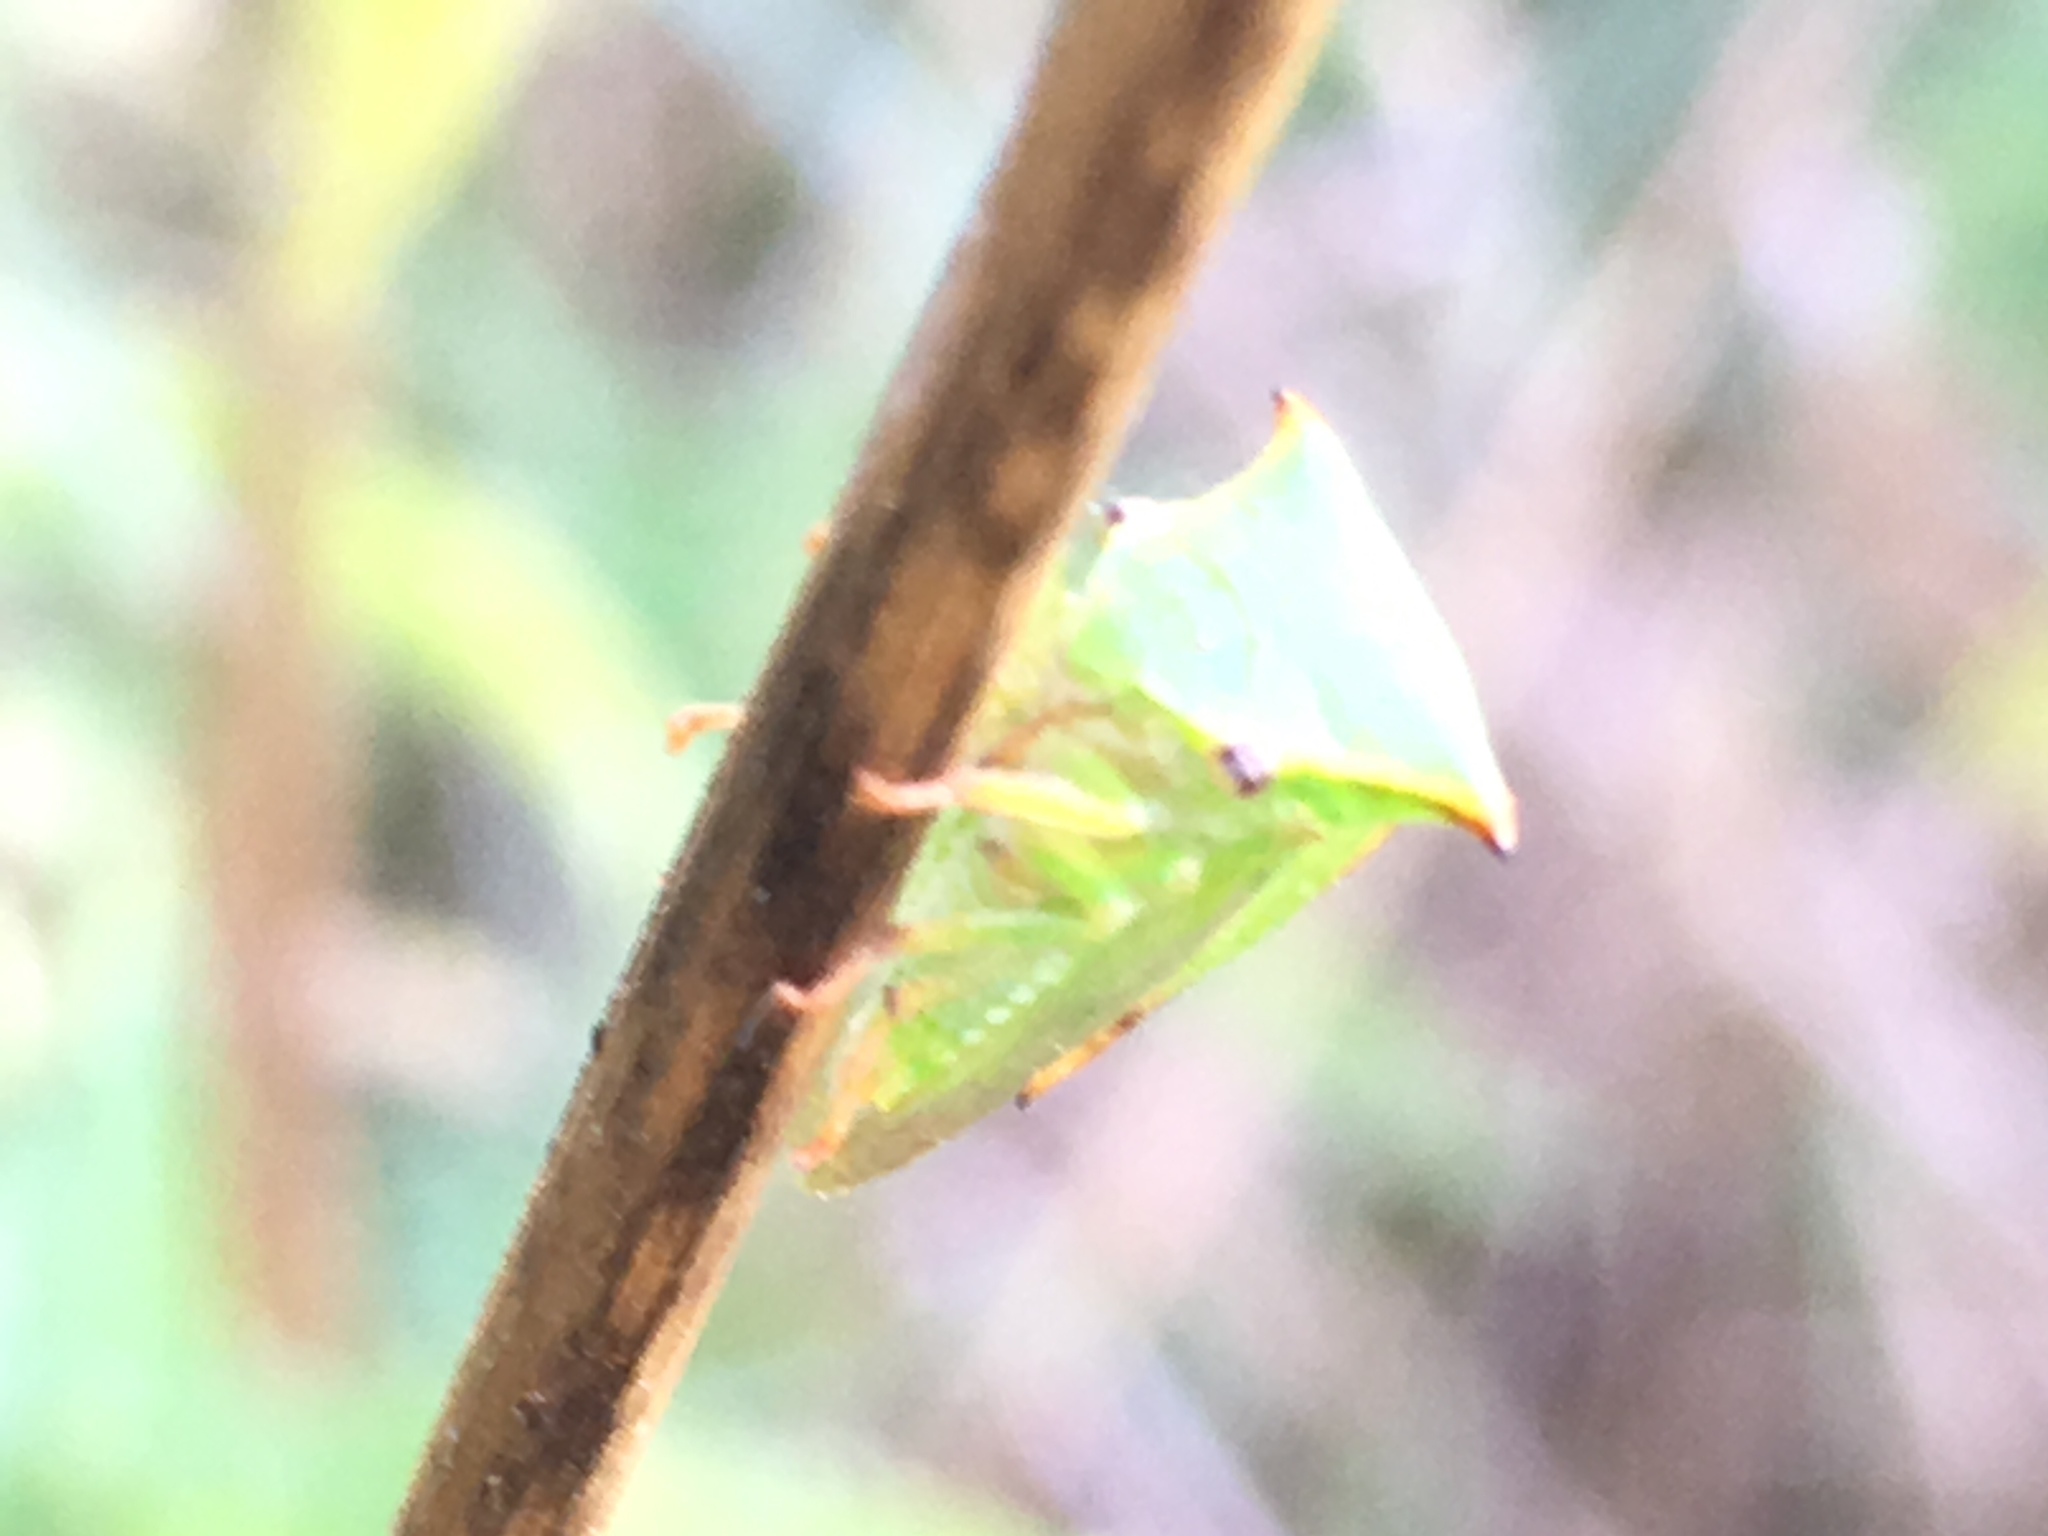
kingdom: Animalia
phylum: Arthropoda
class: Insecta
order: Hemiptera
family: Membracidae
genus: Stictocephala
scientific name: Stictocephala bisonia
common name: American buffalo treehopper
